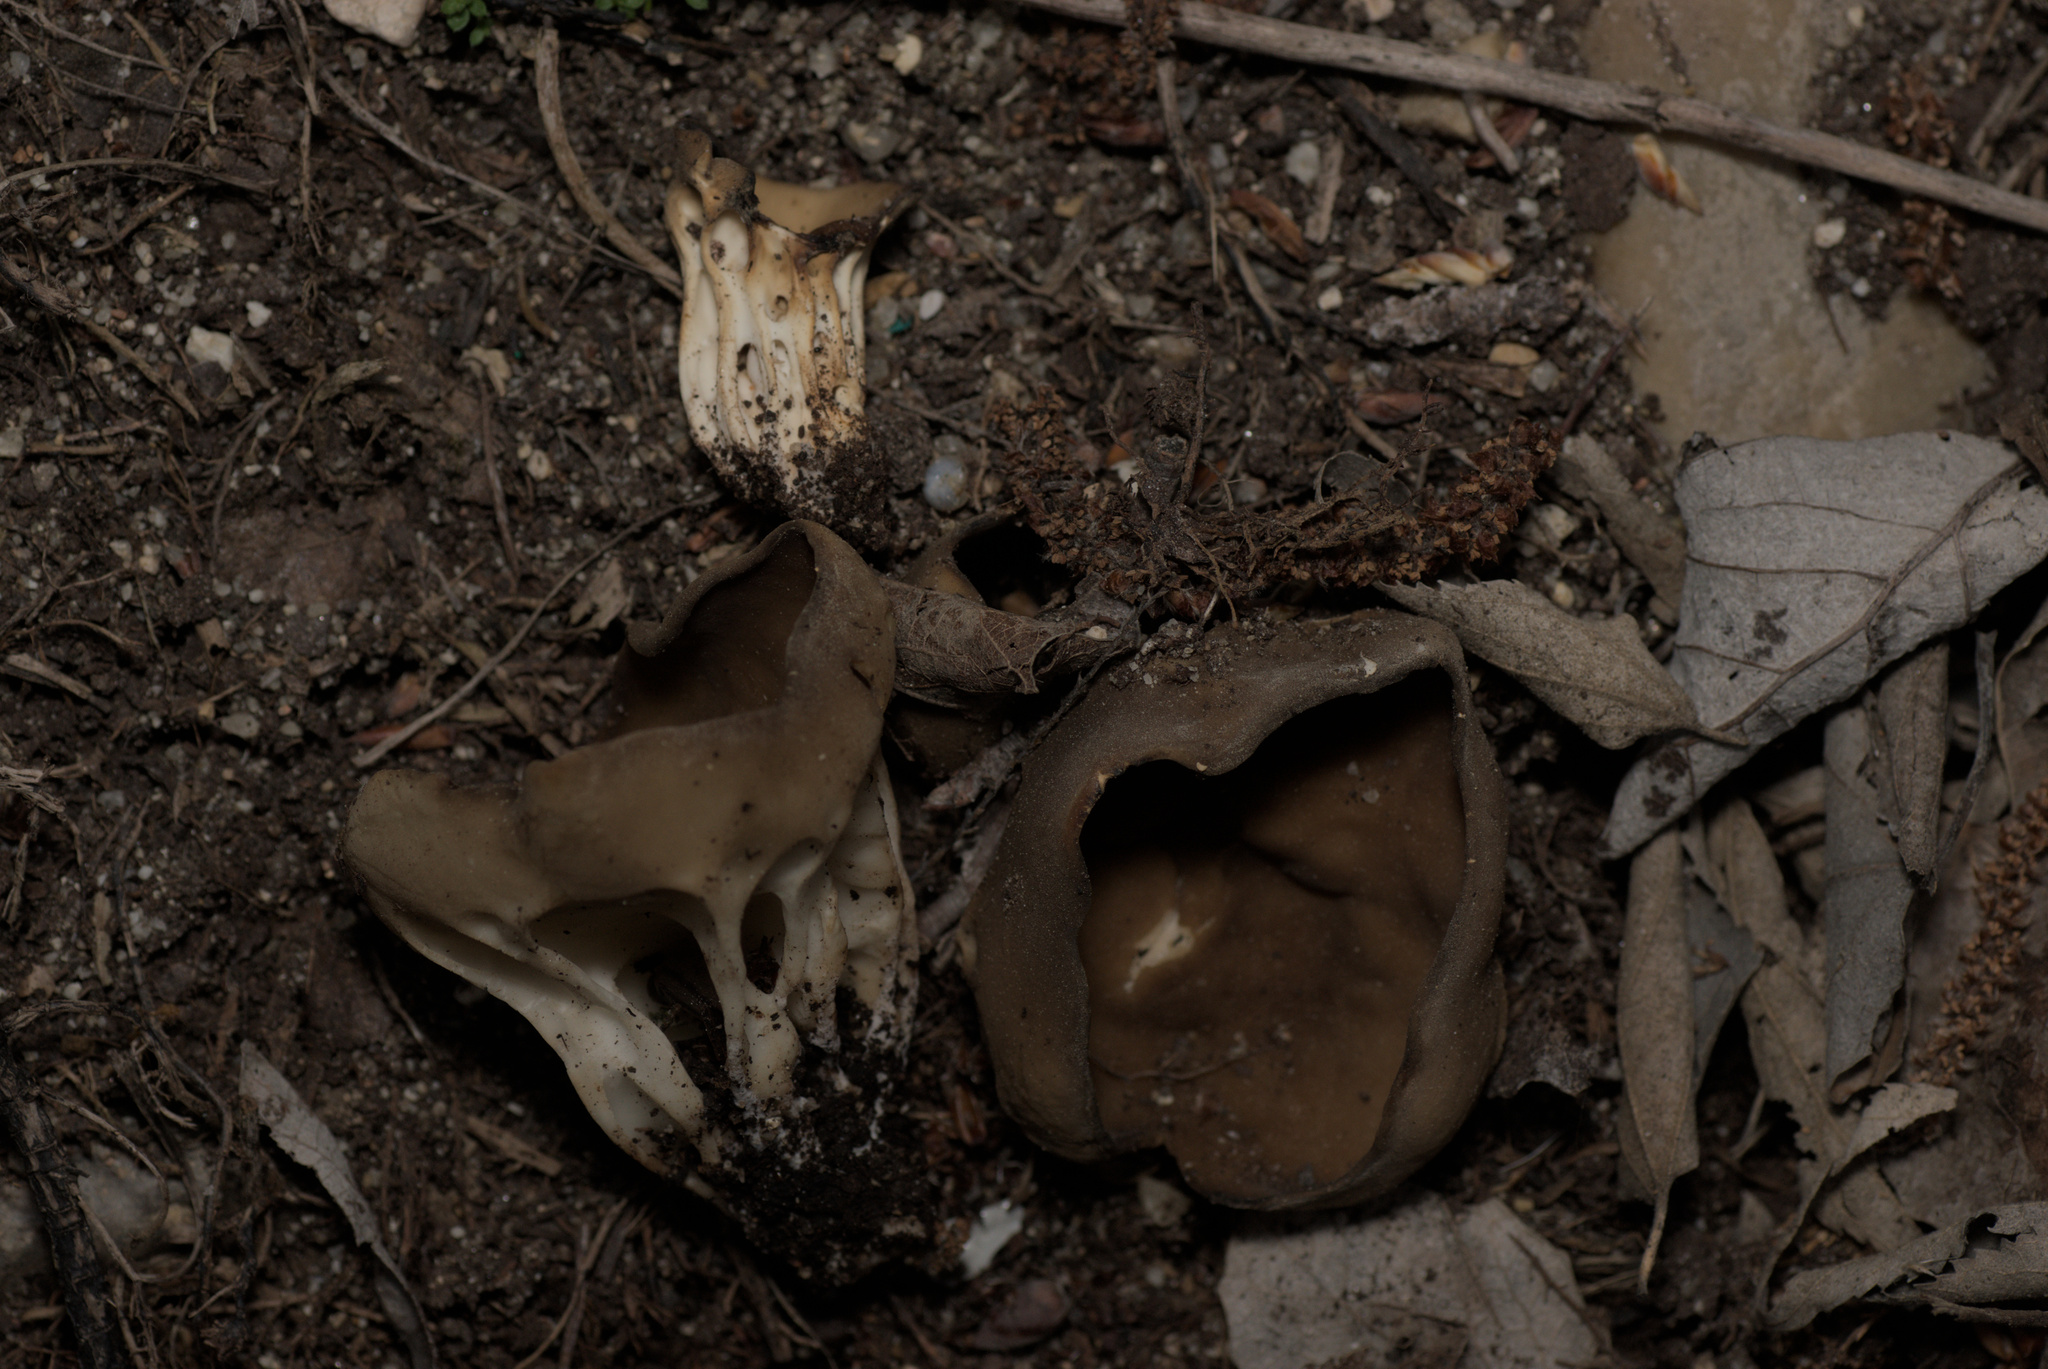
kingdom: Fungi
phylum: Ascomycota
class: Pezizomycetes
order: Pezizales
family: Helvellaceae
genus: Helvella
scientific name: Helvella acetabulum
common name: Vinegar cup
